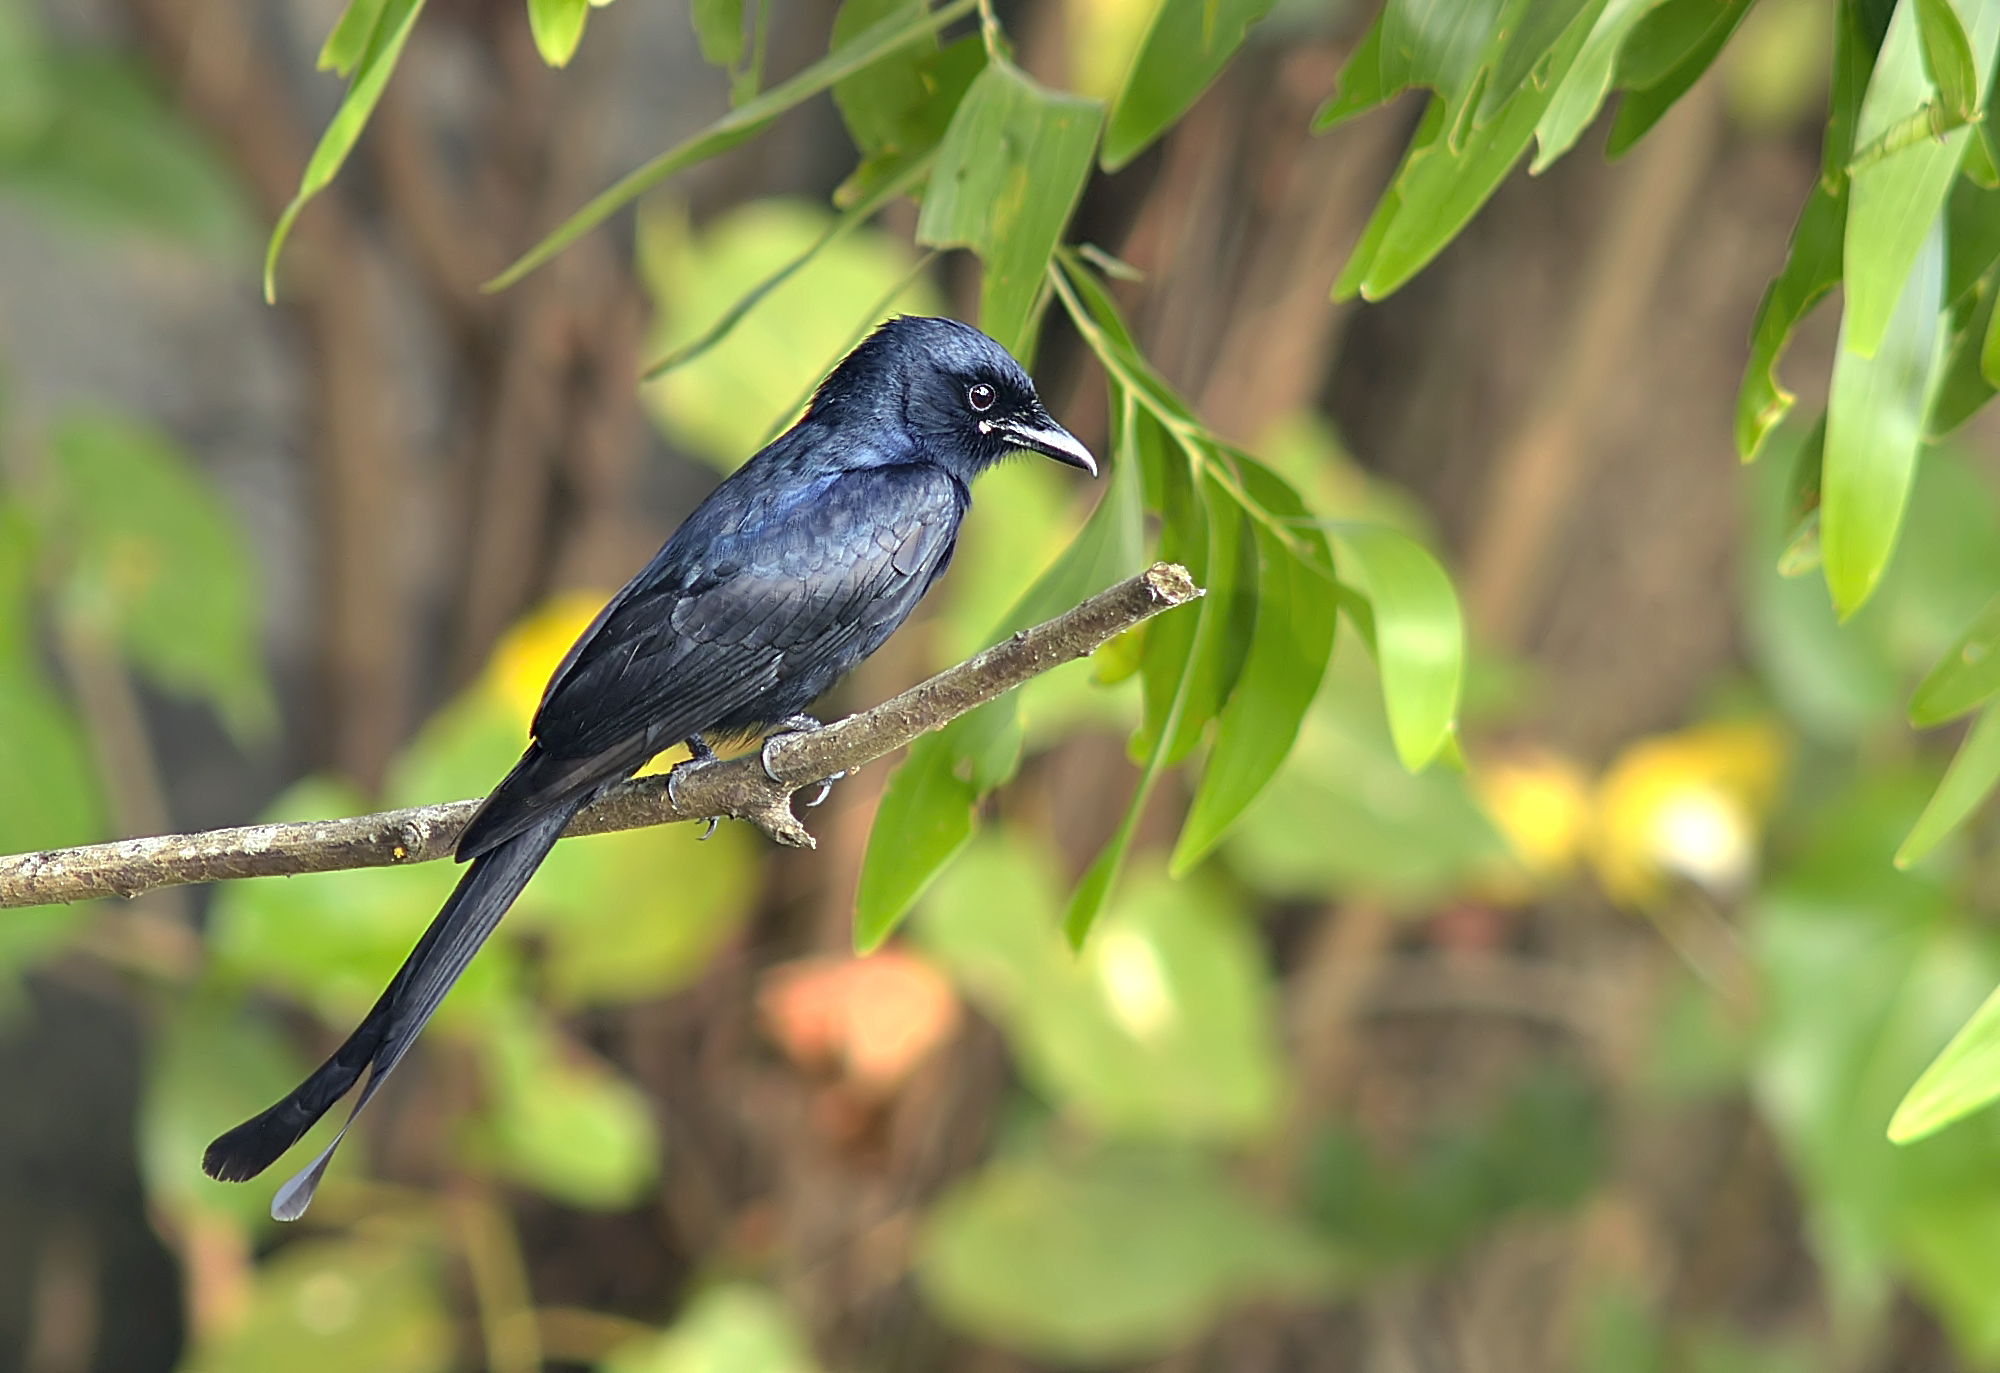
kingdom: Animalia
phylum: Chordata
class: Aves
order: Passeriformes
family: Dicruridae
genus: Dicrurus
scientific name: Dicrurus macrocercus
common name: Black drongo
